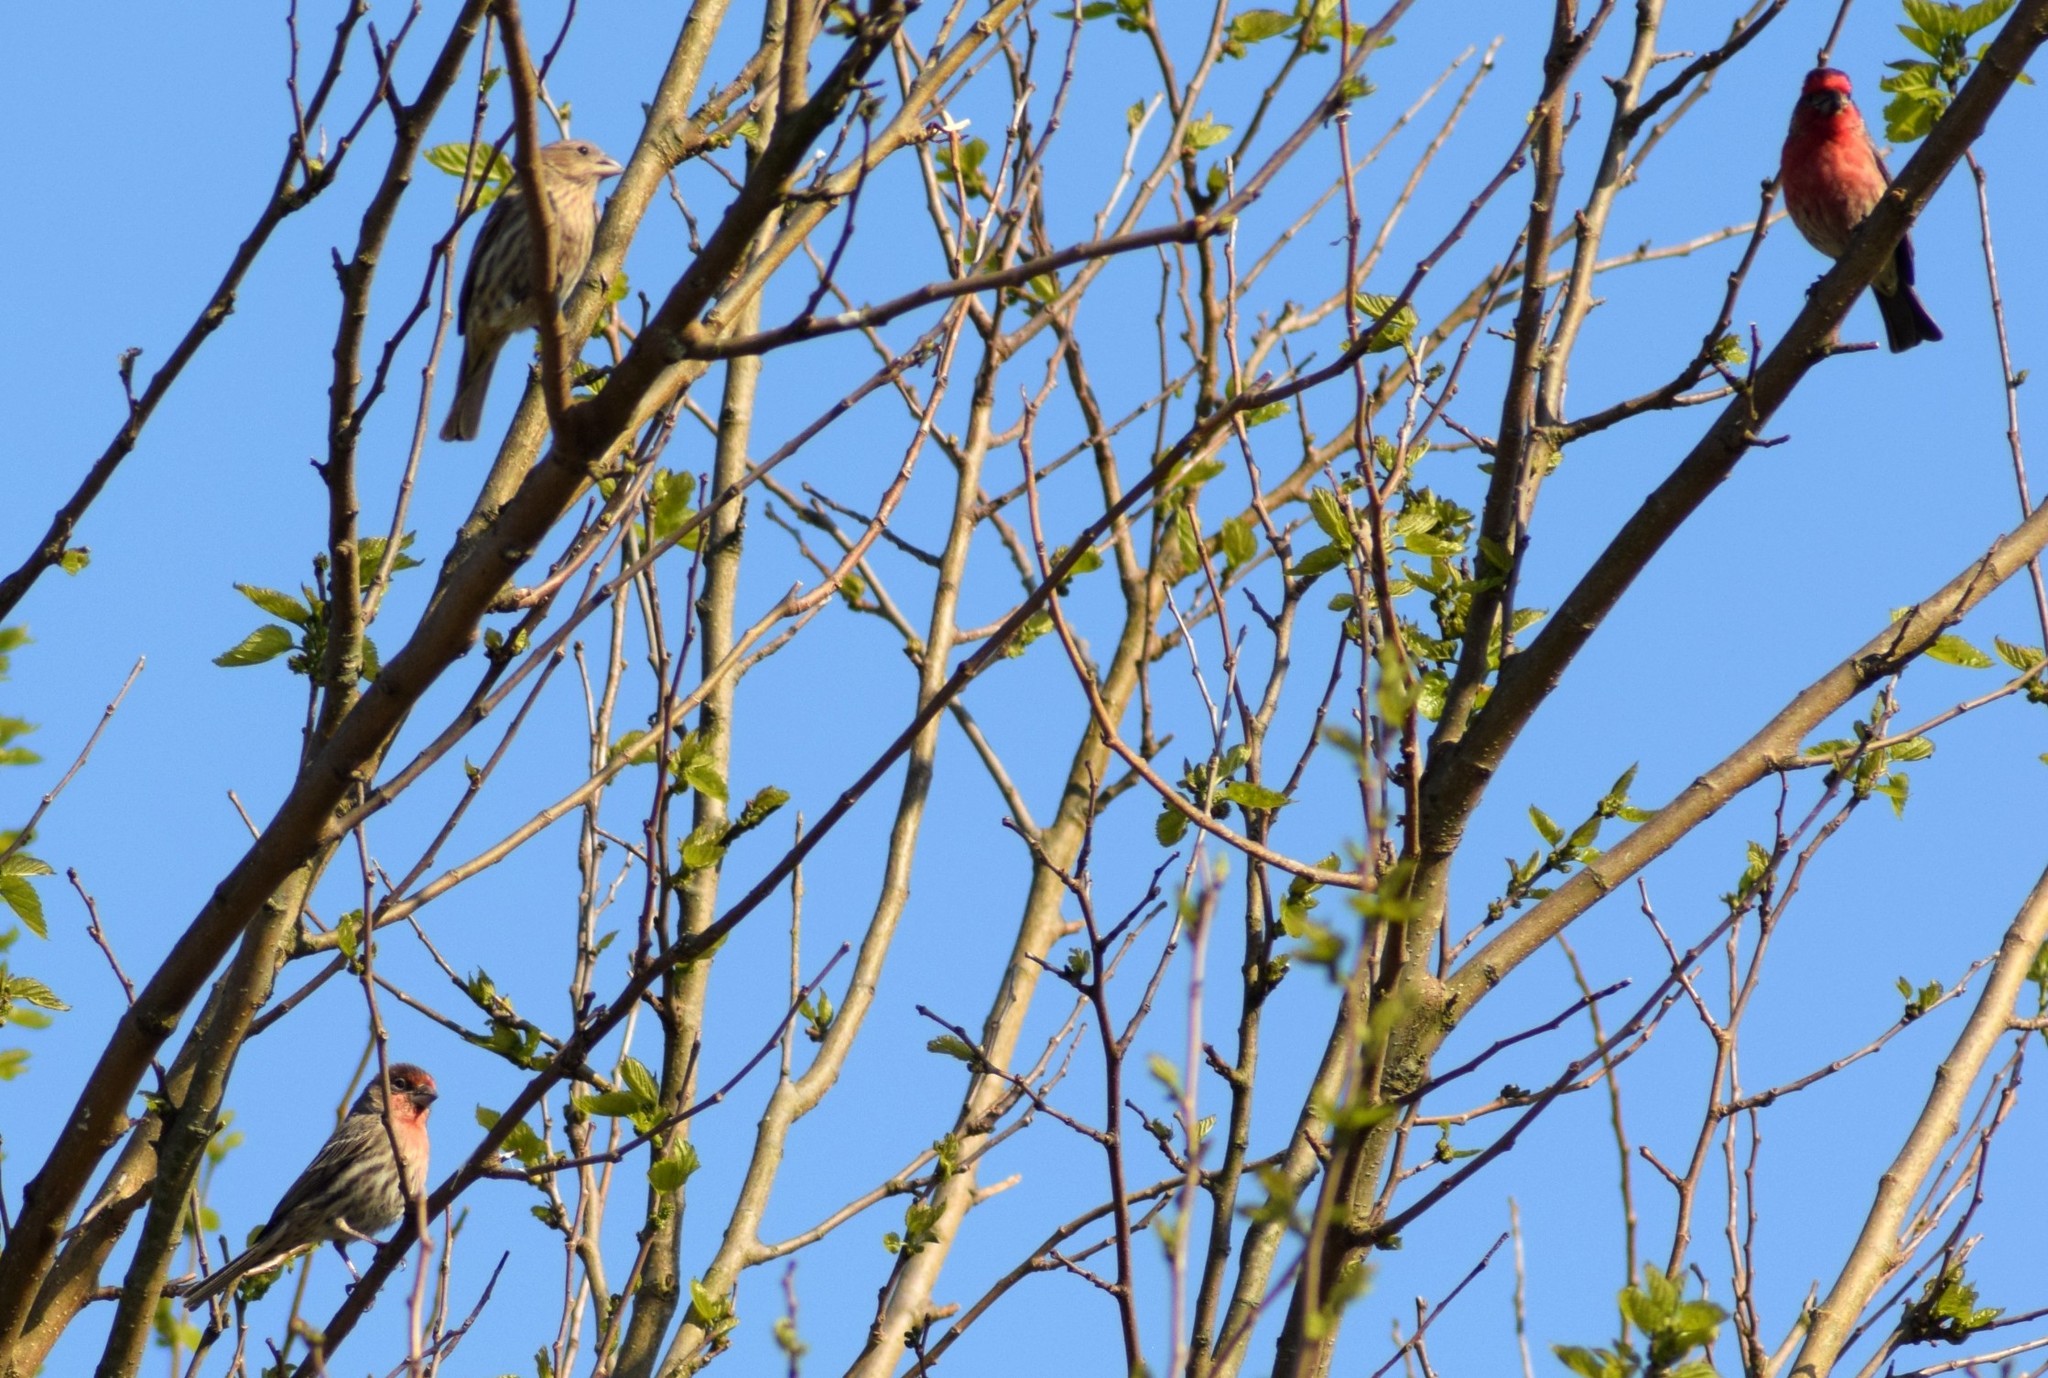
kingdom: Animalia
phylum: Chordata
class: Aves
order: Passeriformes
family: Fringillidae
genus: Haemorhous
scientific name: Haemorhous mexicanus
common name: House finch
